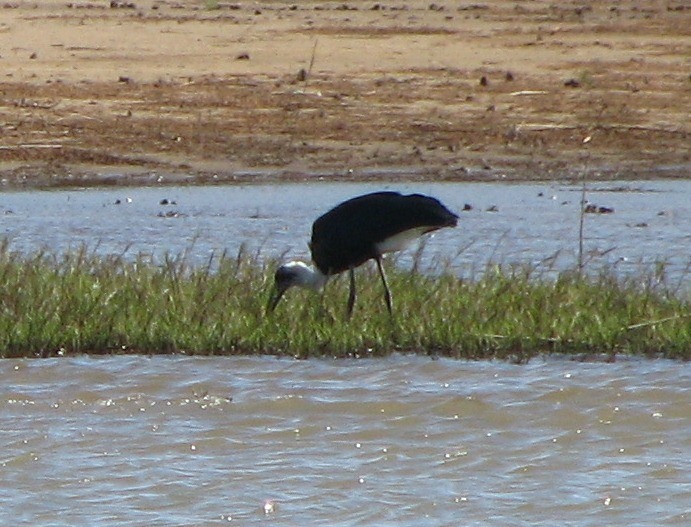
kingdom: Animalia
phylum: Chordata
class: Aves
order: Ciconiiformes
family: Ciconiidae
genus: Ciconia
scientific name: Ciconia microscelis
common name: African woollyneck
